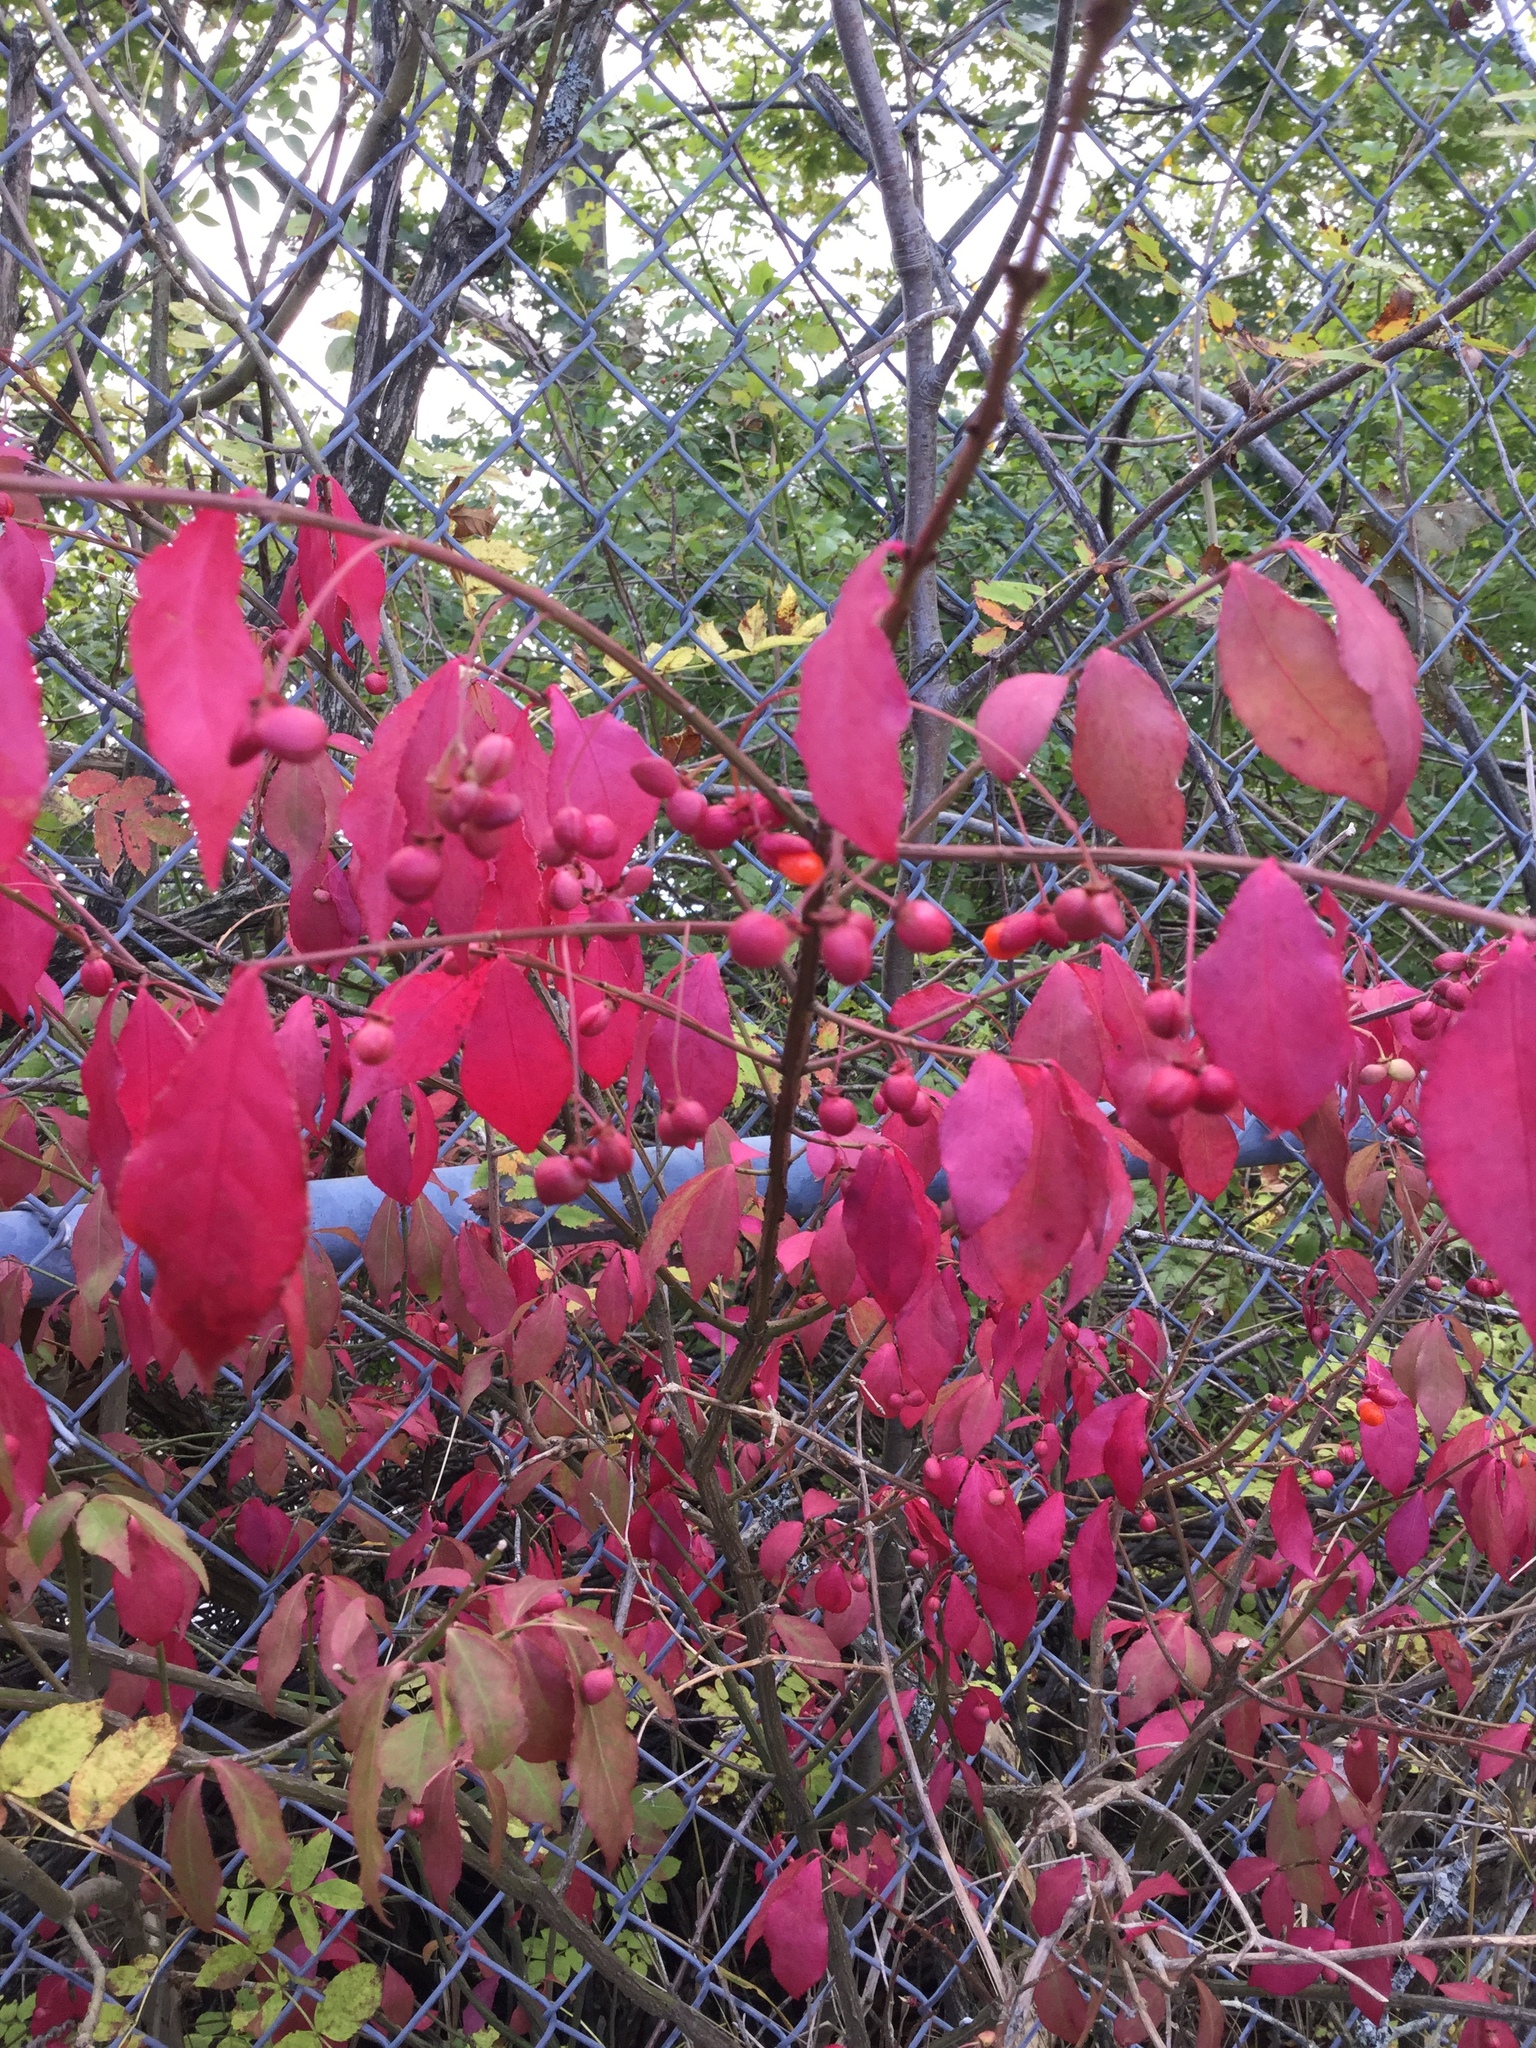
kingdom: Plantae
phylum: Tracheophyta
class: Magnoliopsida
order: Celastrales
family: Celastraceae
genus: Euonymus
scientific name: Euonymus alatus
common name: Winged euonymus
